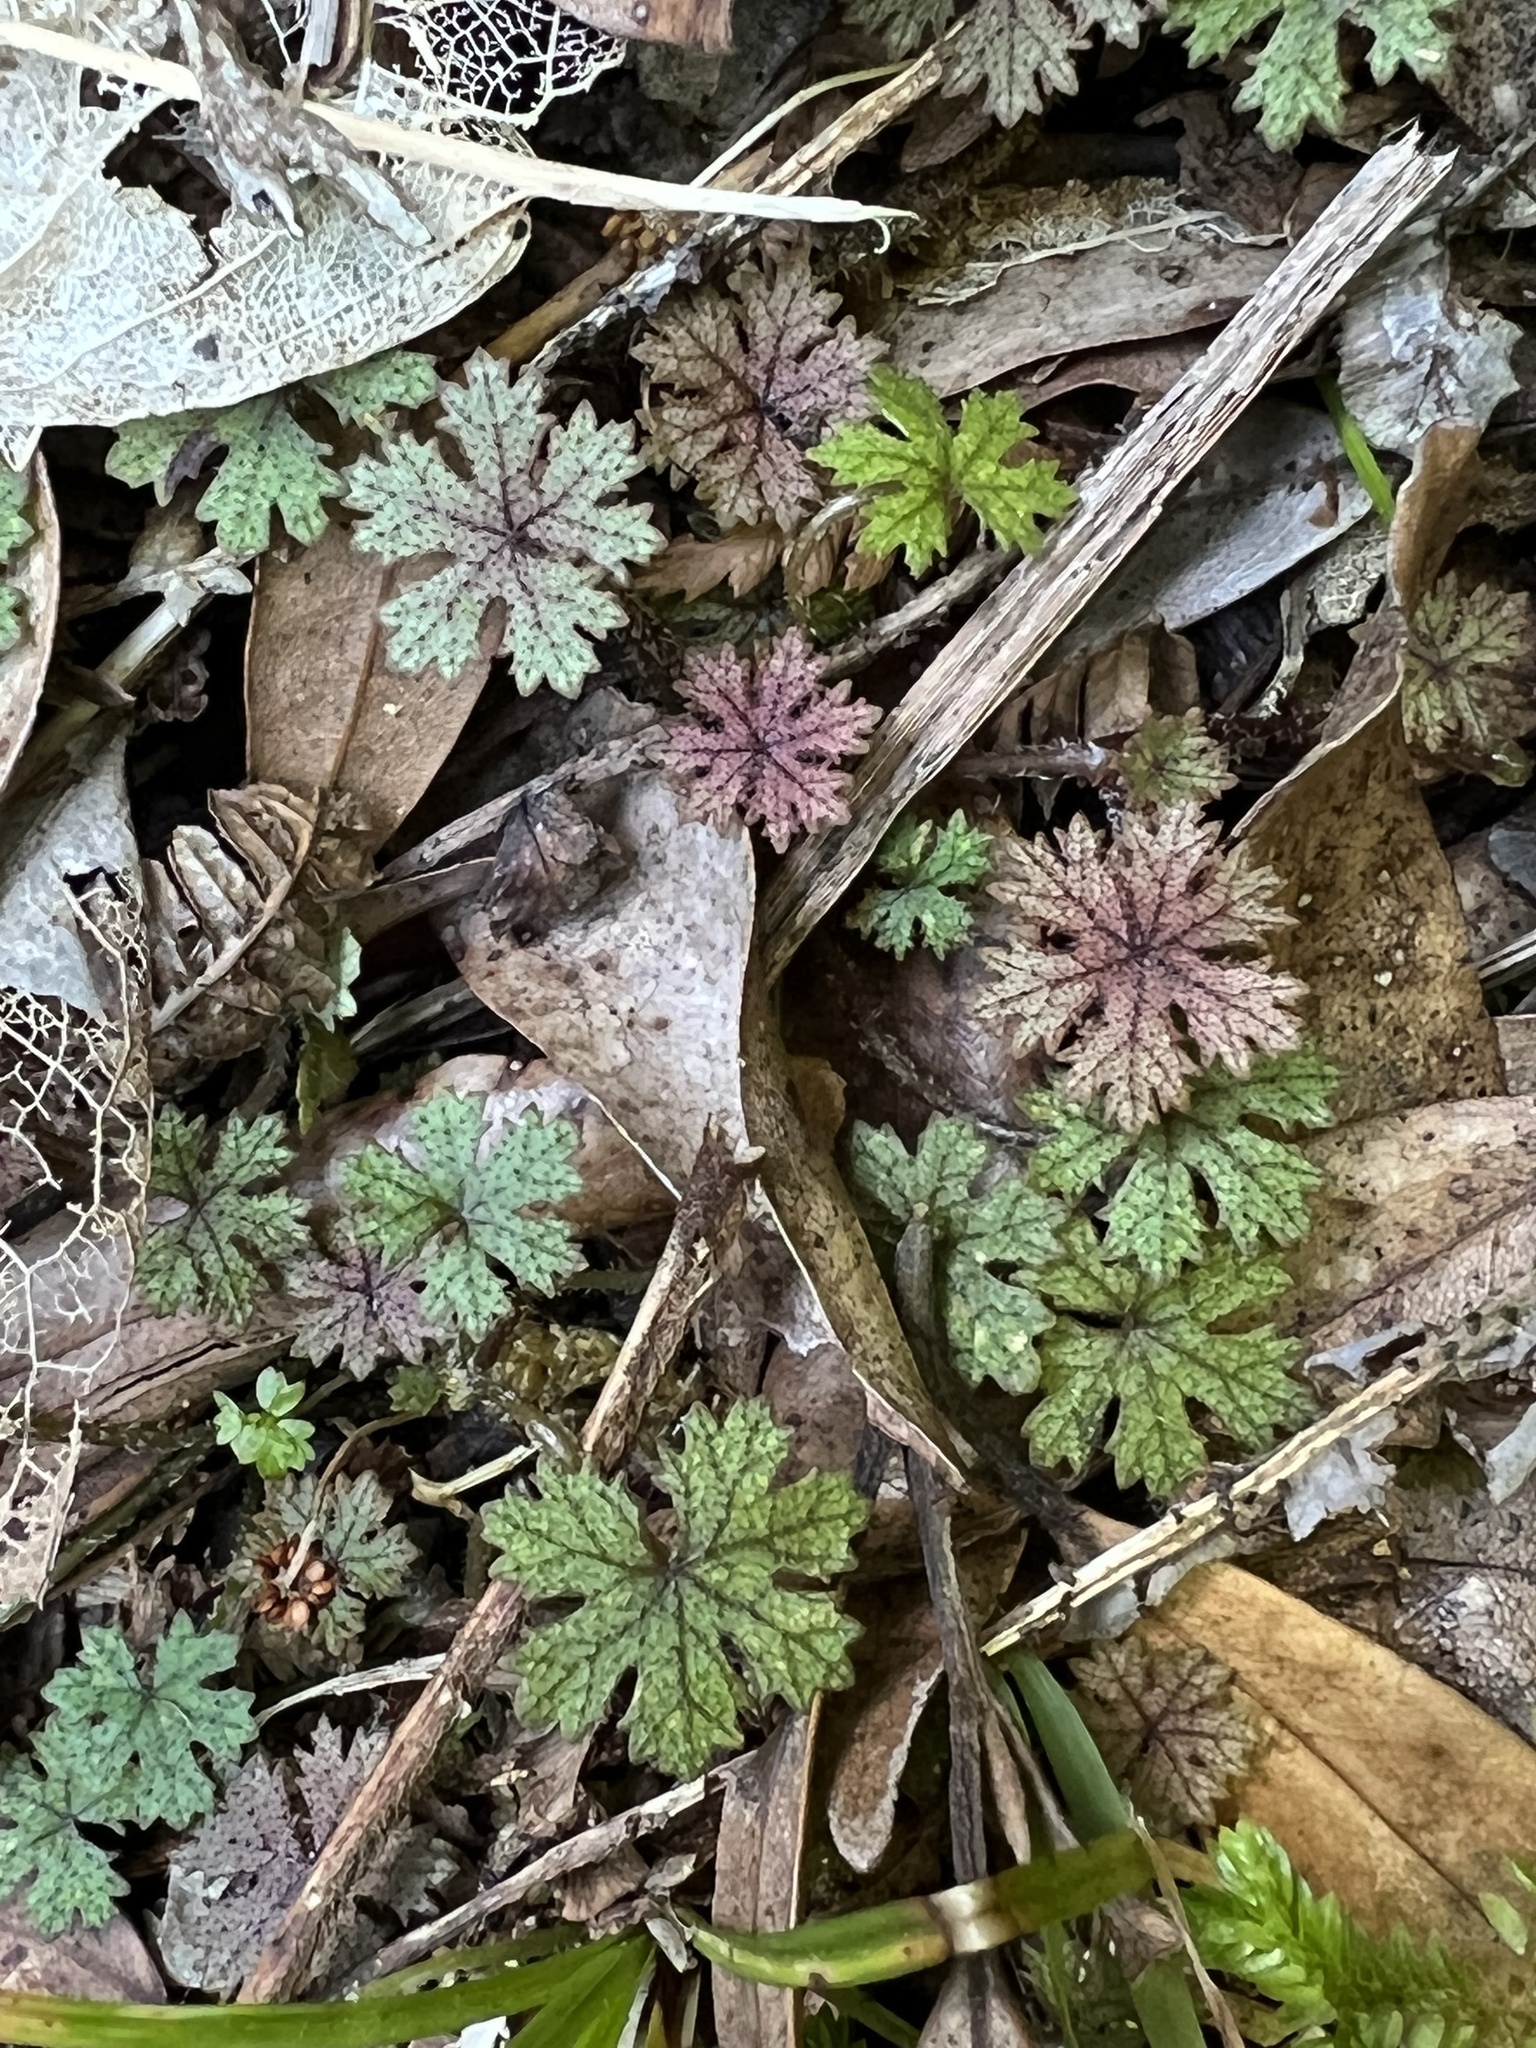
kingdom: Plantae
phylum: Tracheophyta
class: Magnoliopsida
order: Apiales
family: Araliaceae
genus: Hydrocotyle
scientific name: Hydrocotyle dissecta
